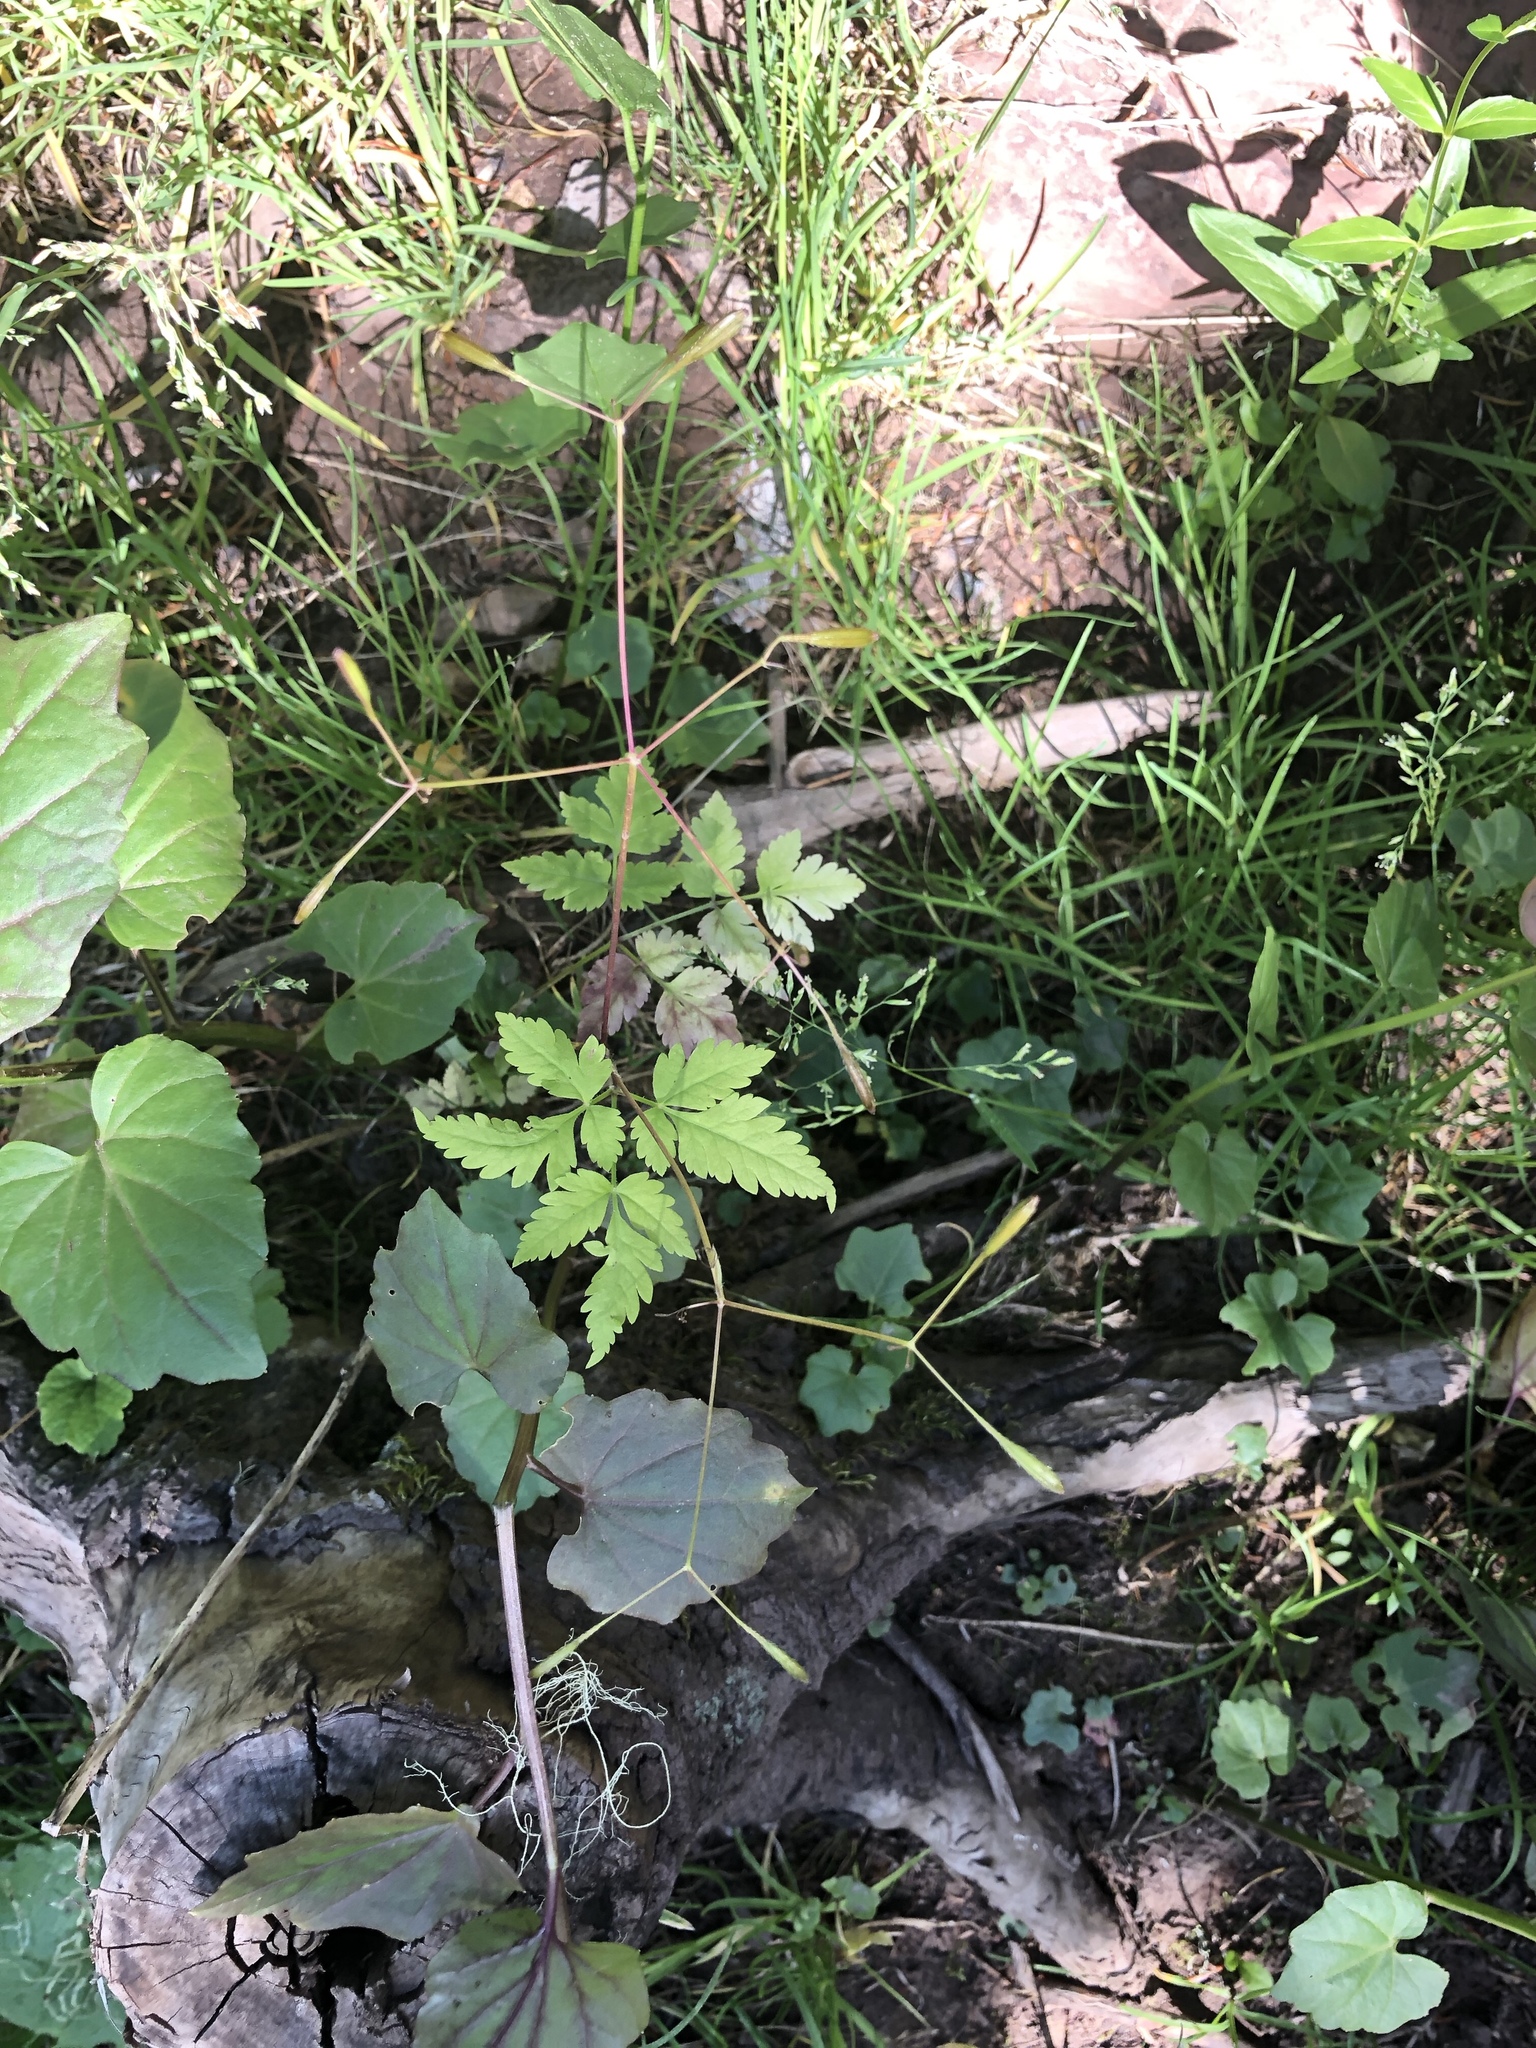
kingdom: Plantae
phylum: Tracheophyta
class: Magnoliopsida
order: Apiales
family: Apiaceae
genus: Osmorhiza
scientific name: Osmorhiza depauperata
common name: Blunt sweet cicely
